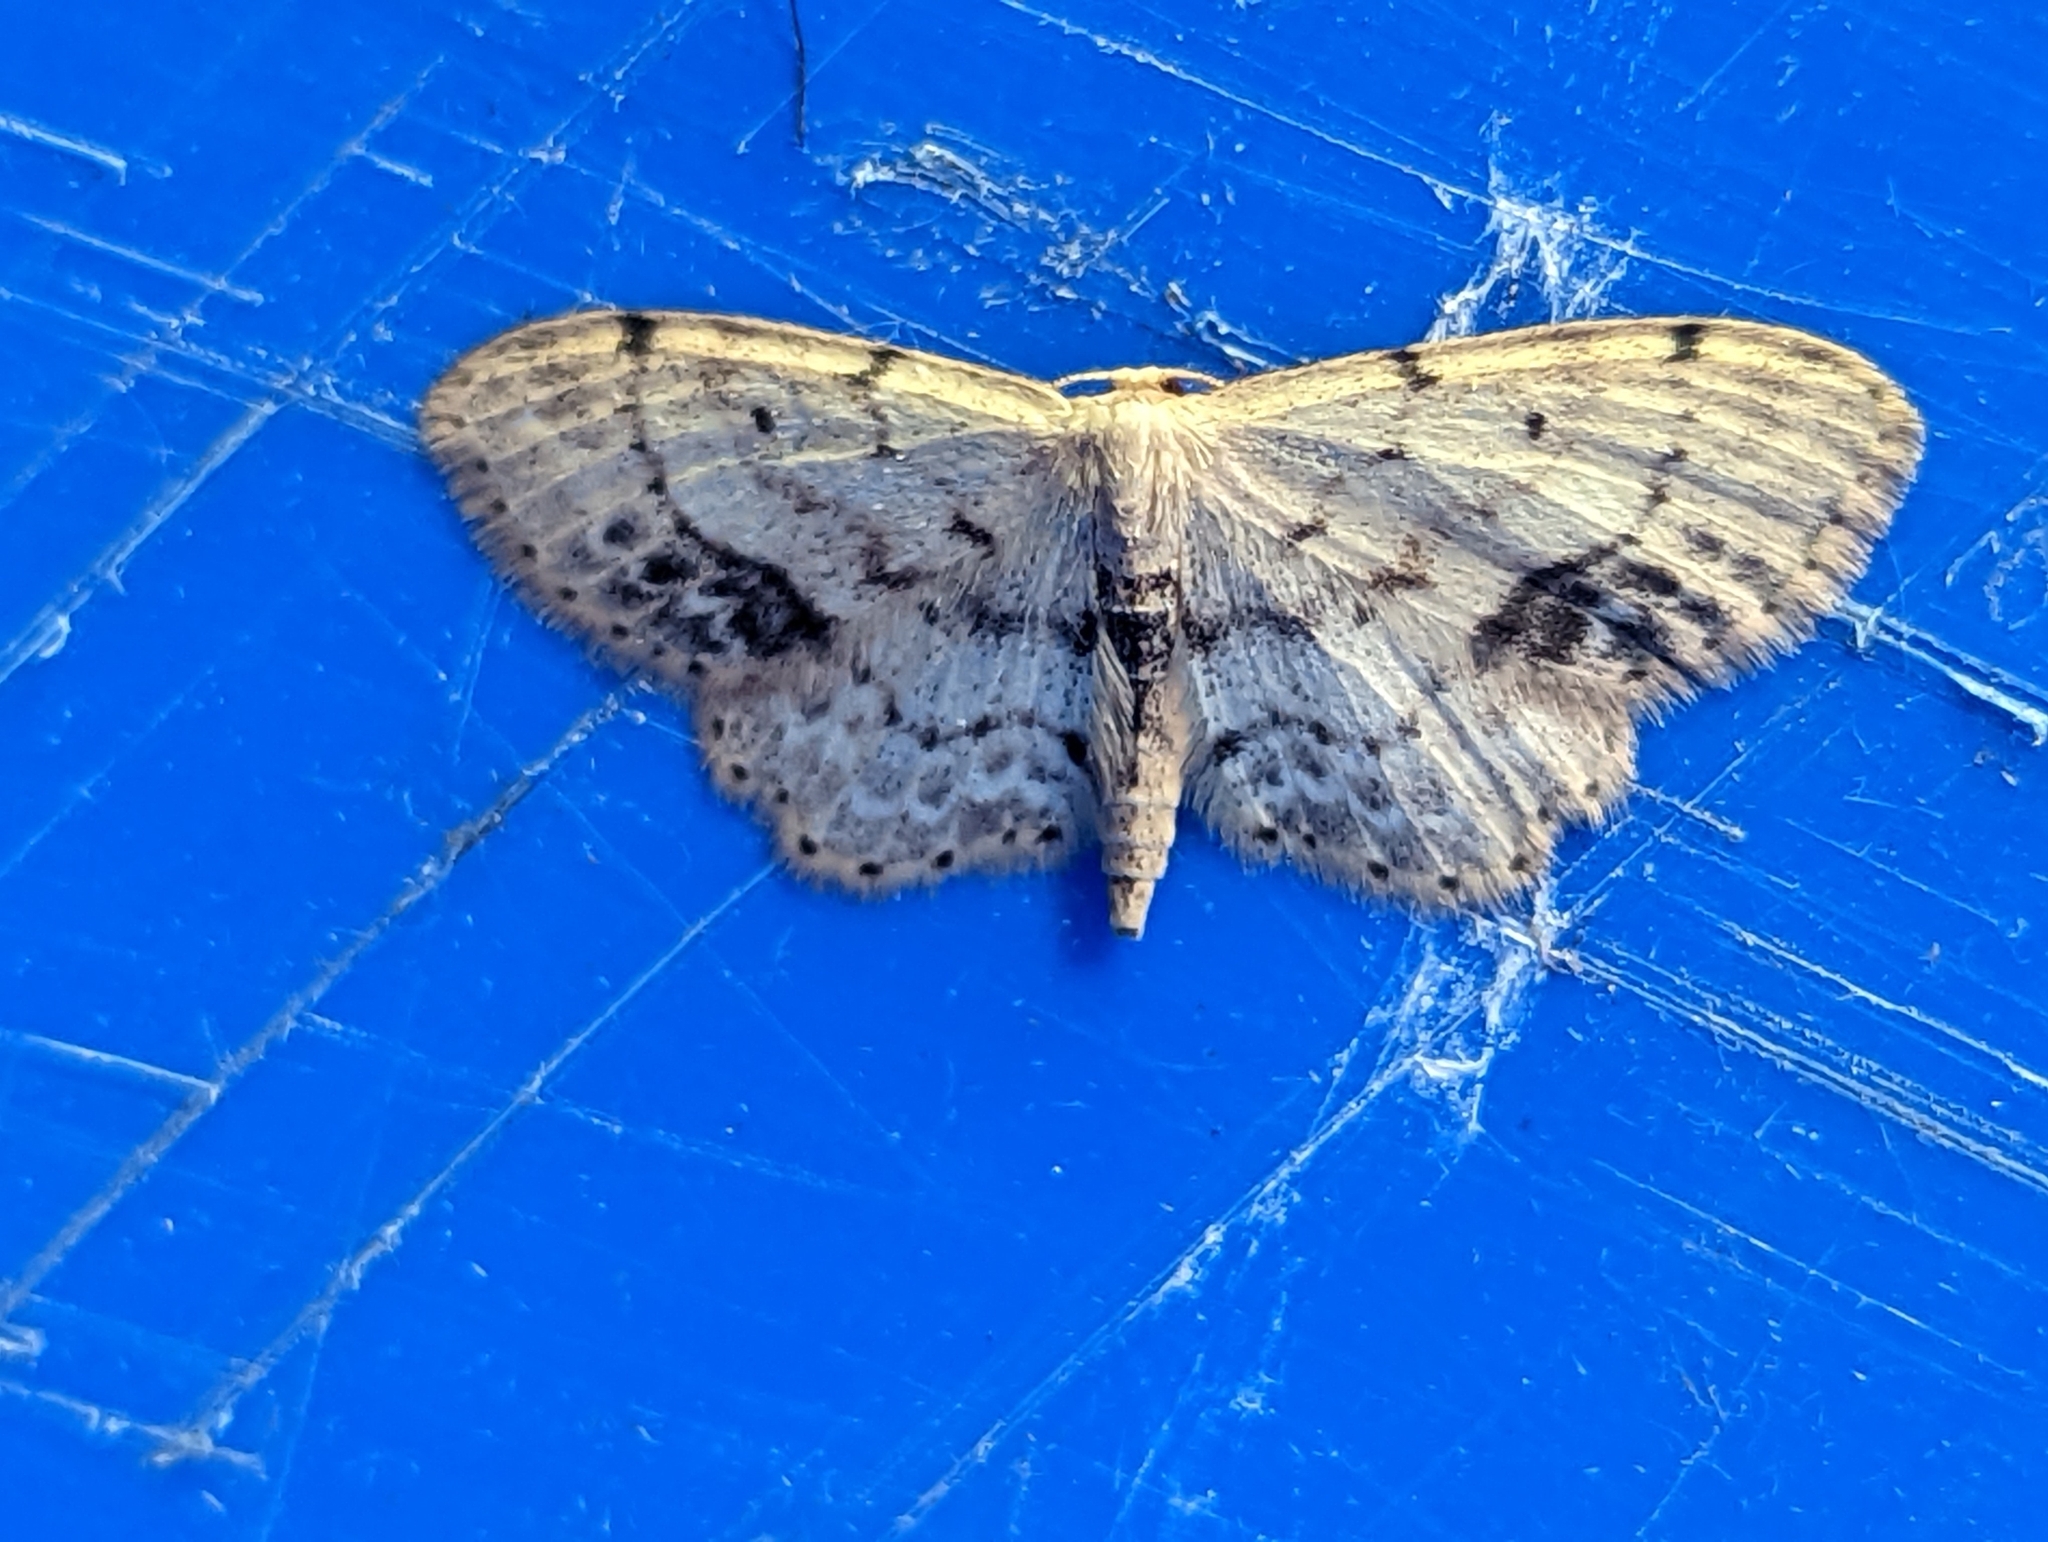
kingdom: Animalia
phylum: Arthropoda
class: Insecta
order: Lepidoptera
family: Geometridae
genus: Idaea
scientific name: Idaea dimidiata
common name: Single-dotted wave
